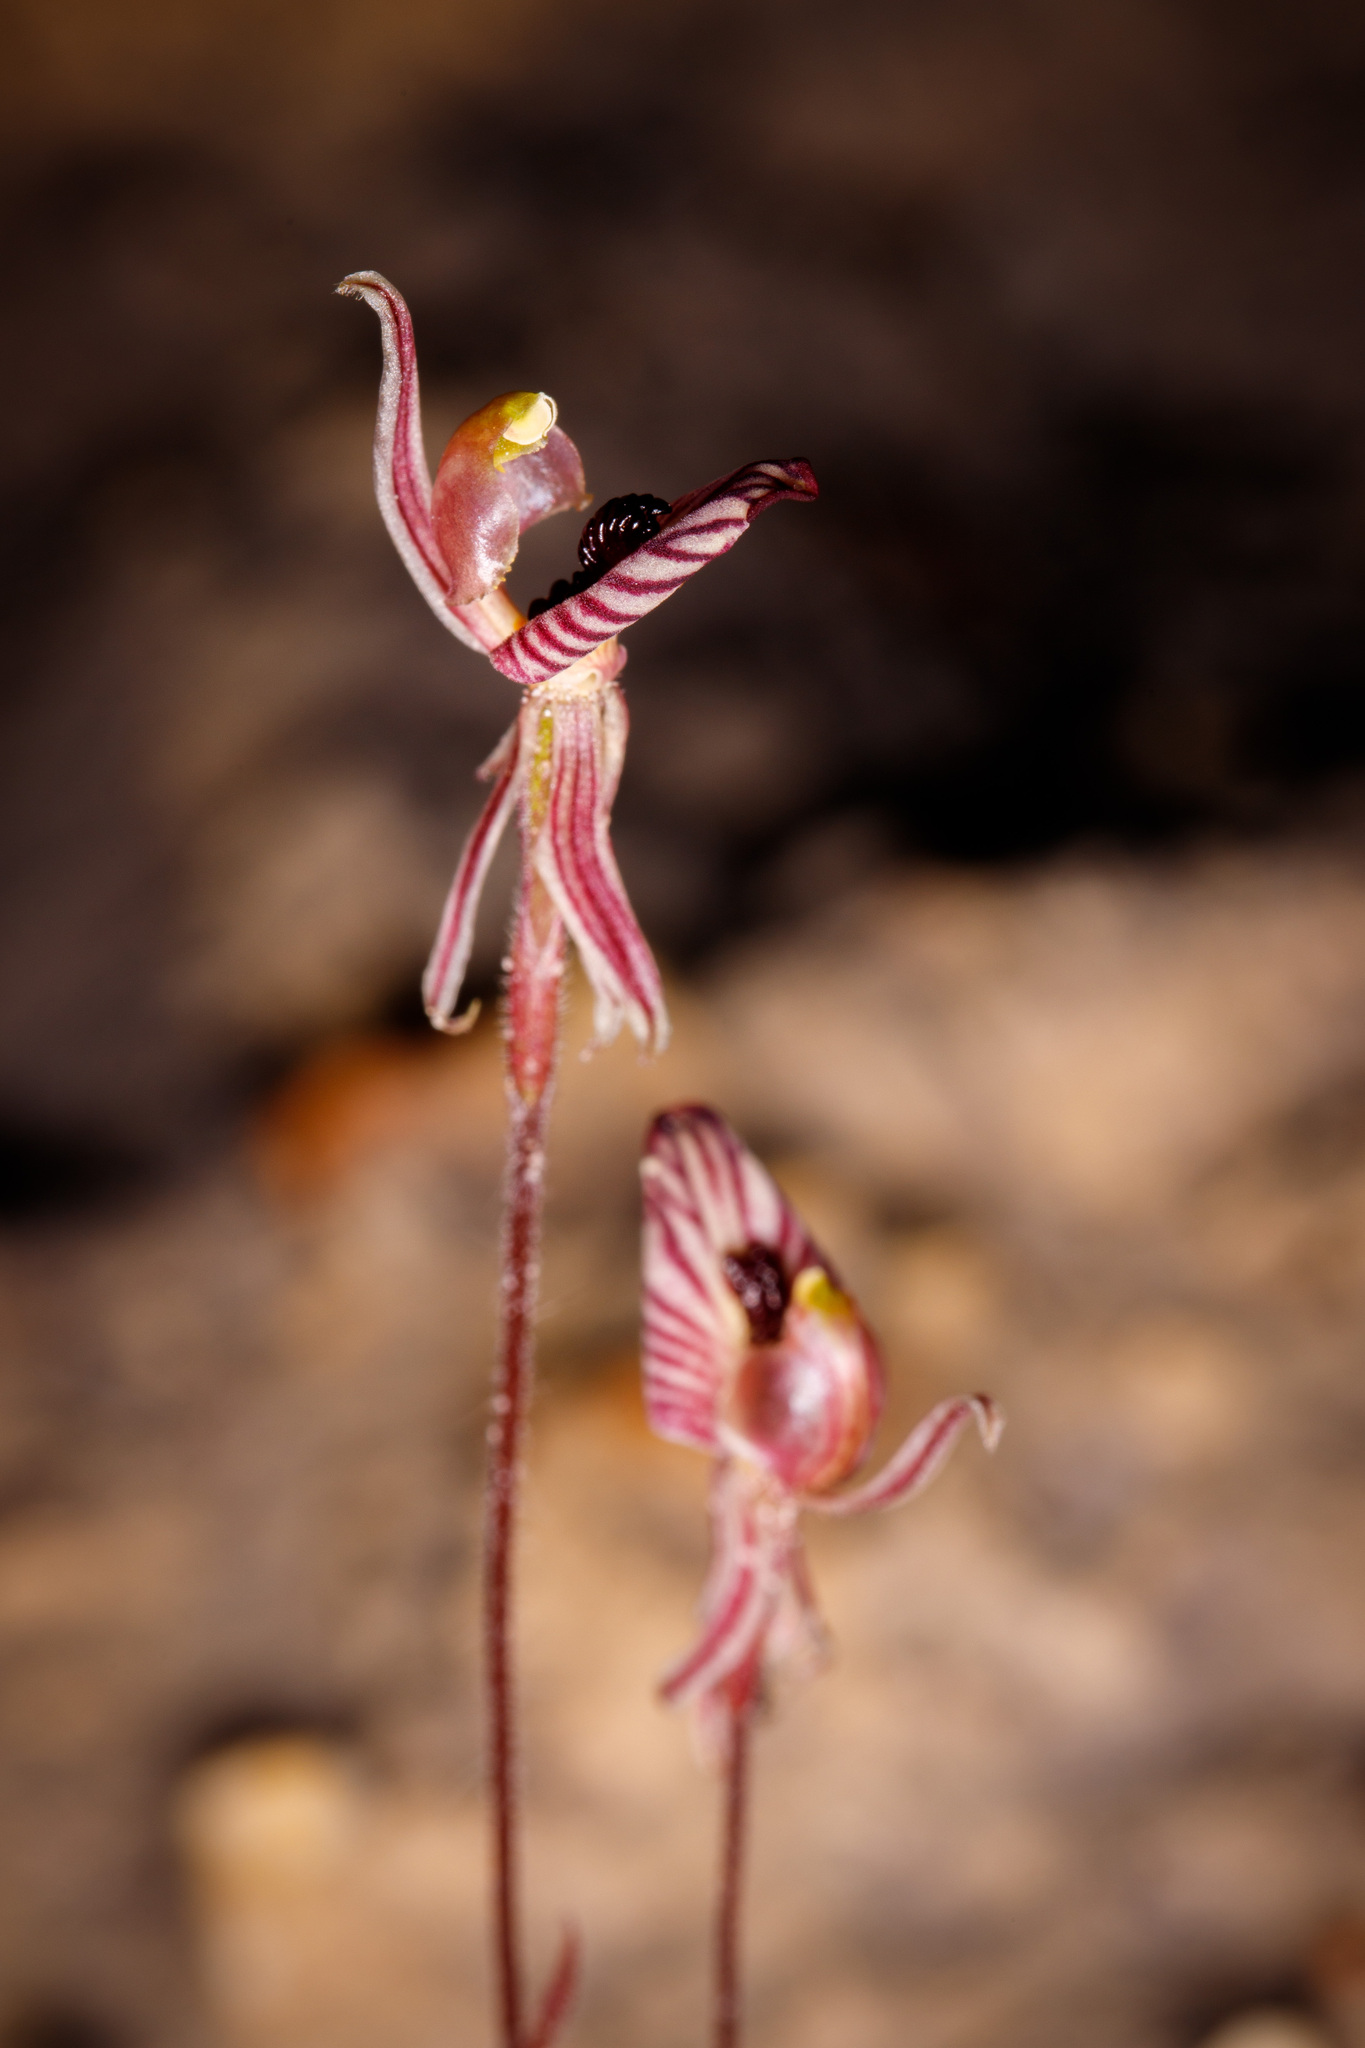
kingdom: Plantae
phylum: Tracheophyta
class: Liliopsida
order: Asparagales
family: Orchidaceae
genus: Caladenia
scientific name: Caladenia cairnsiana
